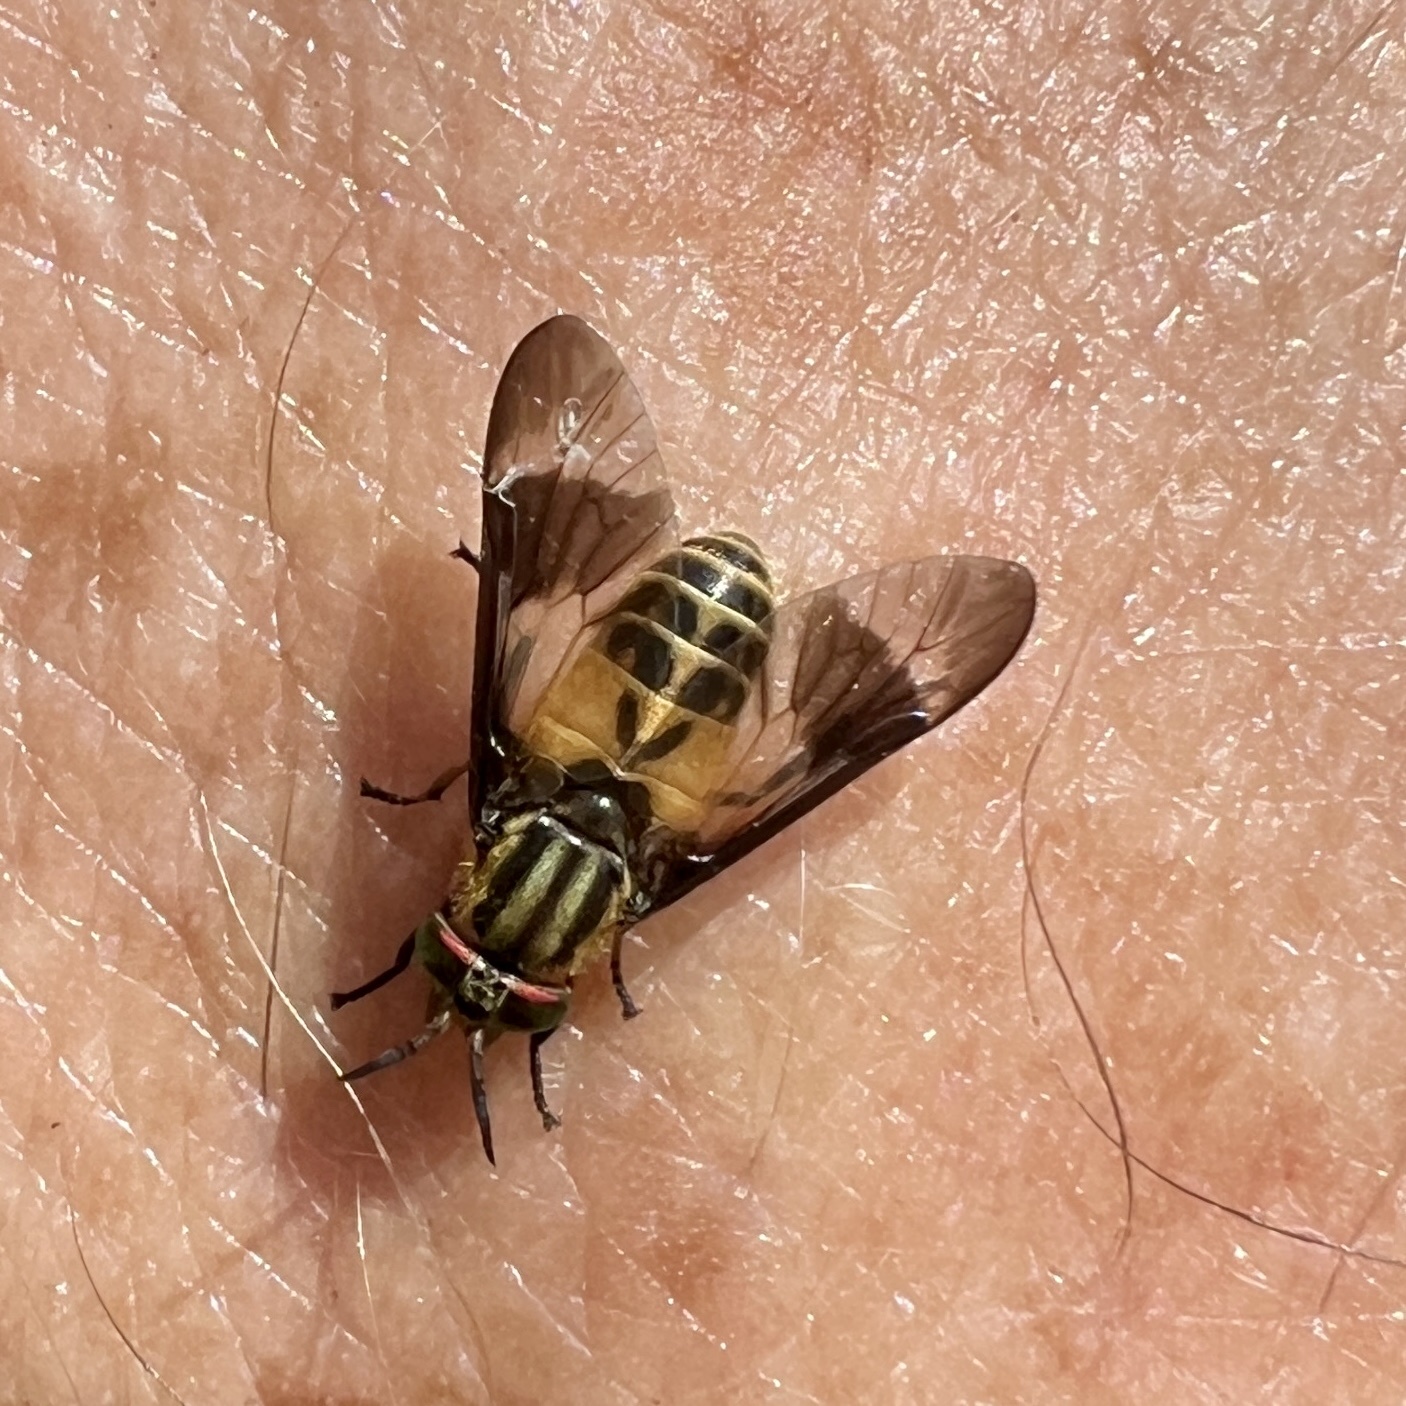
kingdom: Animalia
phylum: Arthropoda
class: Insecta
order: Diptera
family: Tabanidae
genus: Chrysops
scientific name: Chrysops geminatus
